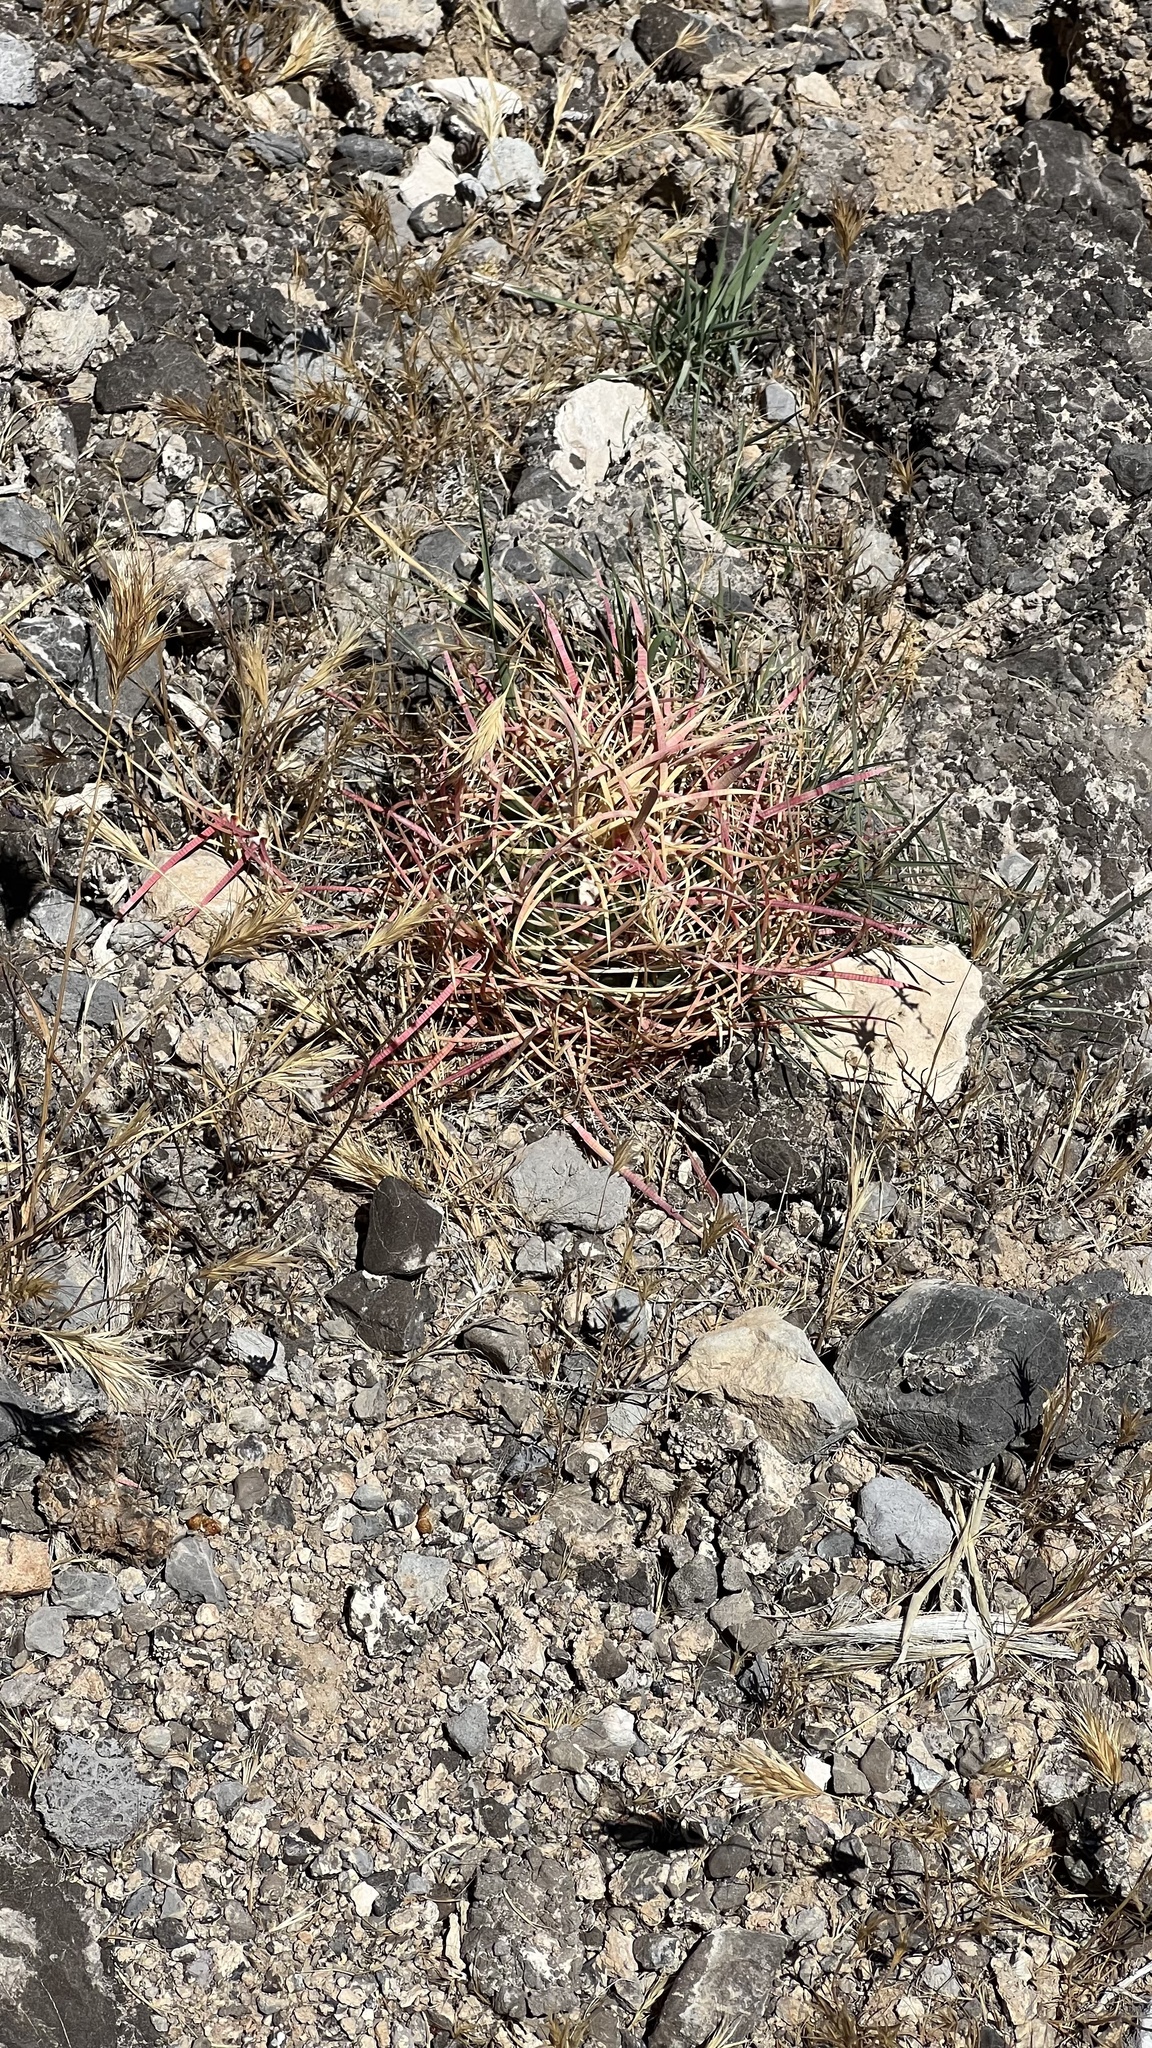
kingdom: Plantae
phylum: Tracheophyta
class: Magnoliopsida
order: Caryophyllales
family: Cactaceae
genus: Ferocactus
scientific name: Ferocactus cylindraceus
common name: California barrel cactus
